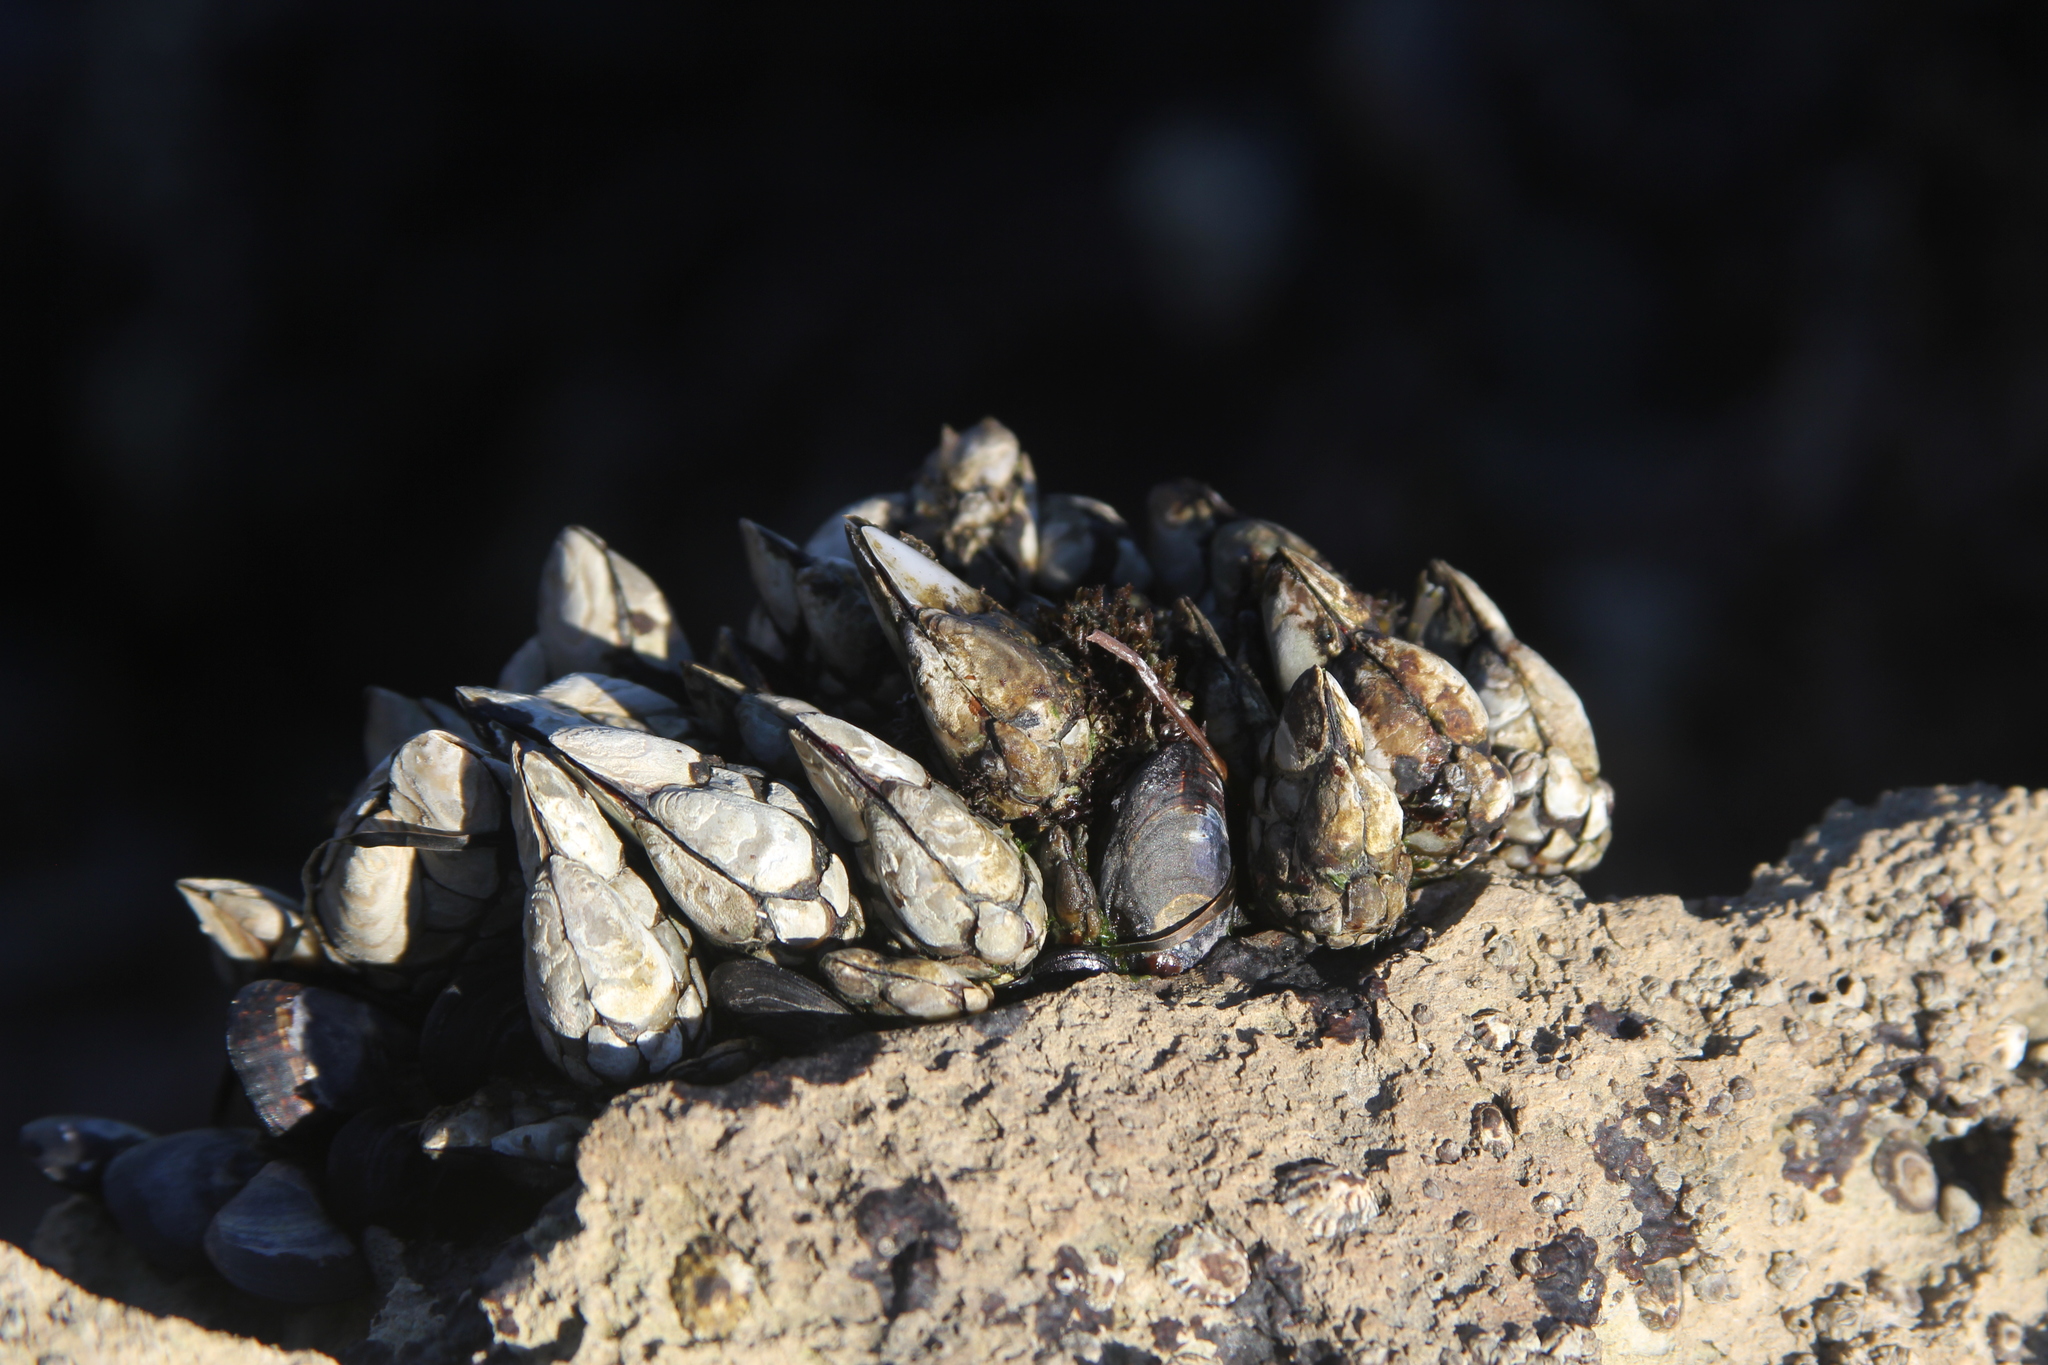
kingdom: Animalia
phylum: Arthropoda
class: Maxillopoda
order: Pedunculata
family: Pollicipedidae
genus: Pollicipes
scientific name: Pollicipes polymerus
